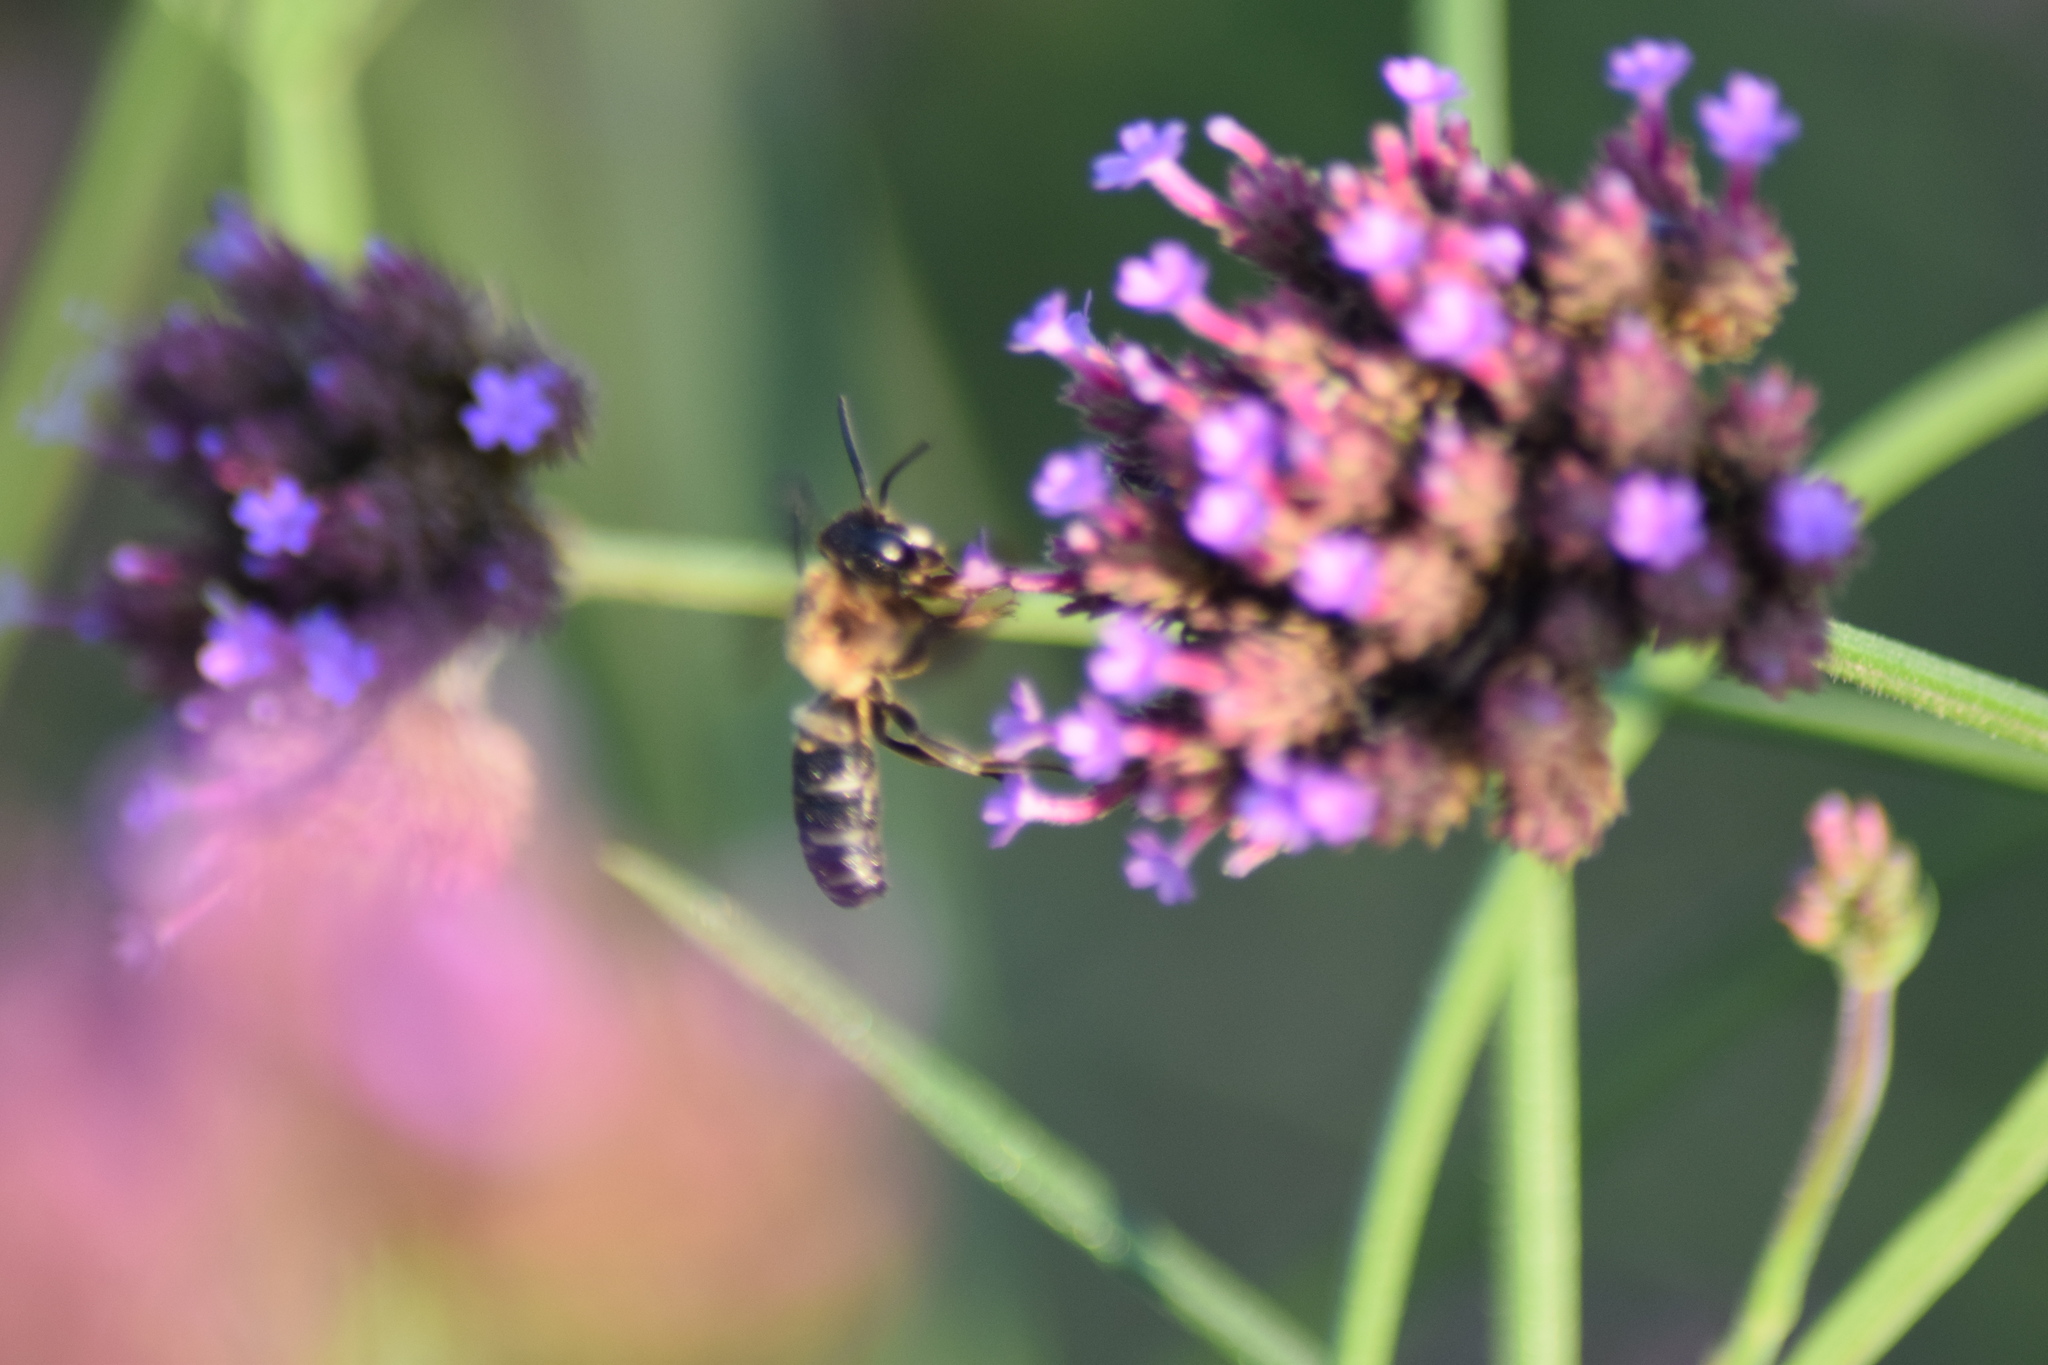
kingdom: Animalia
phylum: Arthropoda
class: Insecta
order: Hymenoptera
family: Megachilidae
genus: Megachile
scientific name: Megachile sculpturalis
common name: Sculptured resin bee
